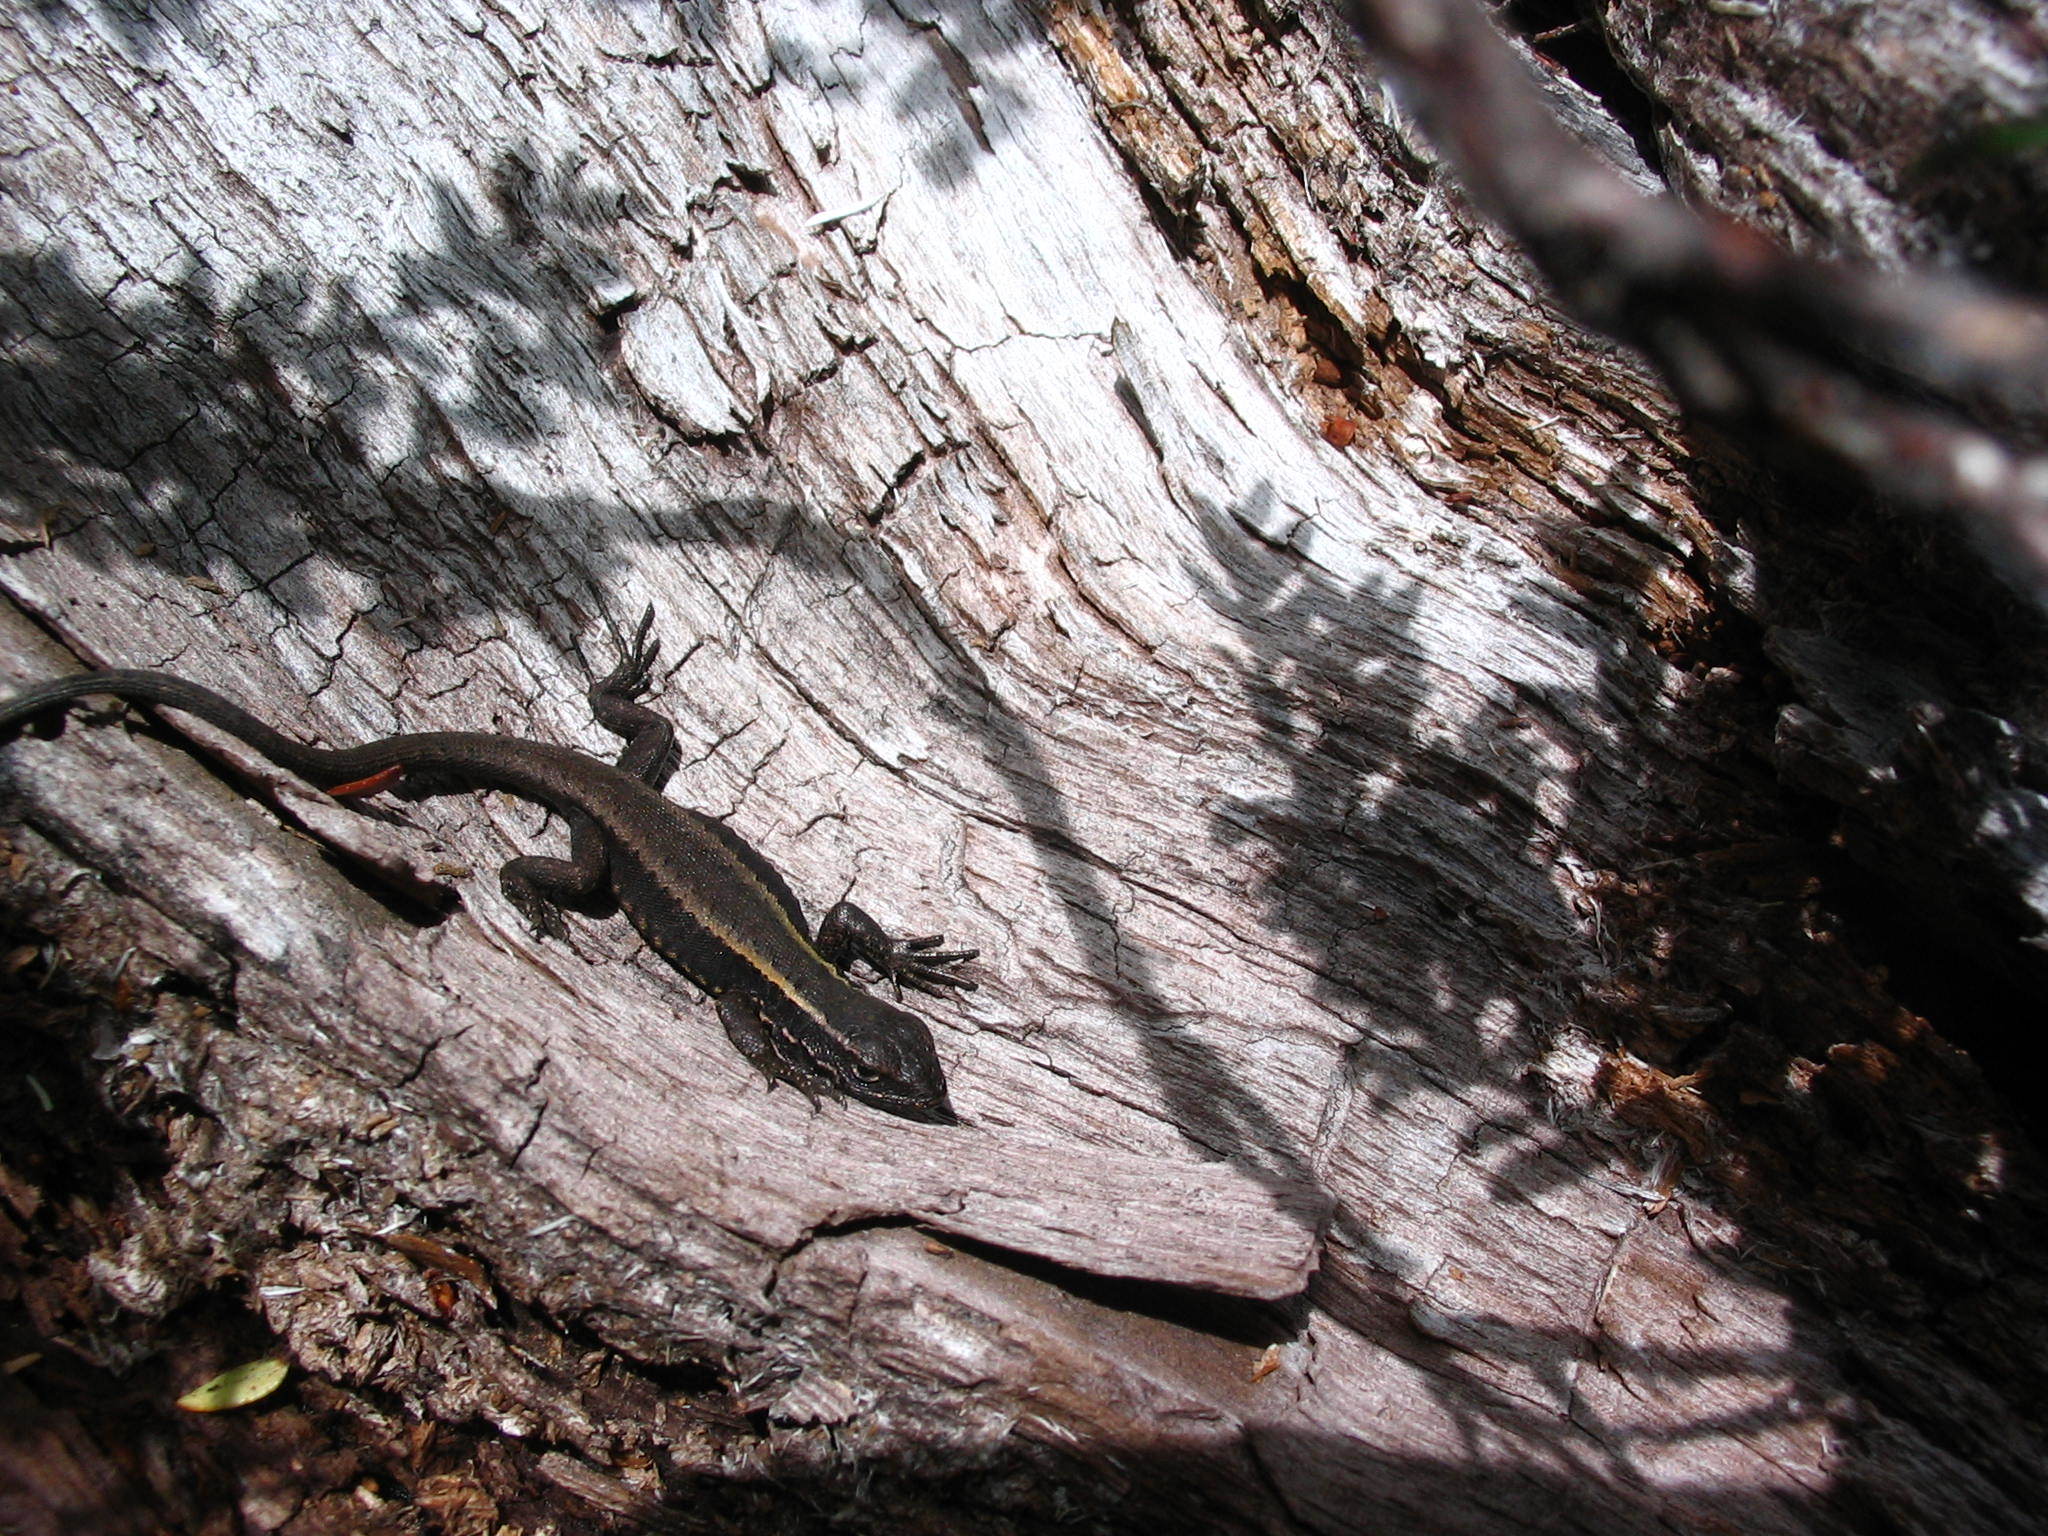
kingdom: Animalia
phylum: Chordata
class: Squamata
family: Liolaemidae
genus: Liolaemus
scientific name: Liolaemus pictus
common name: Painted tree iguana
